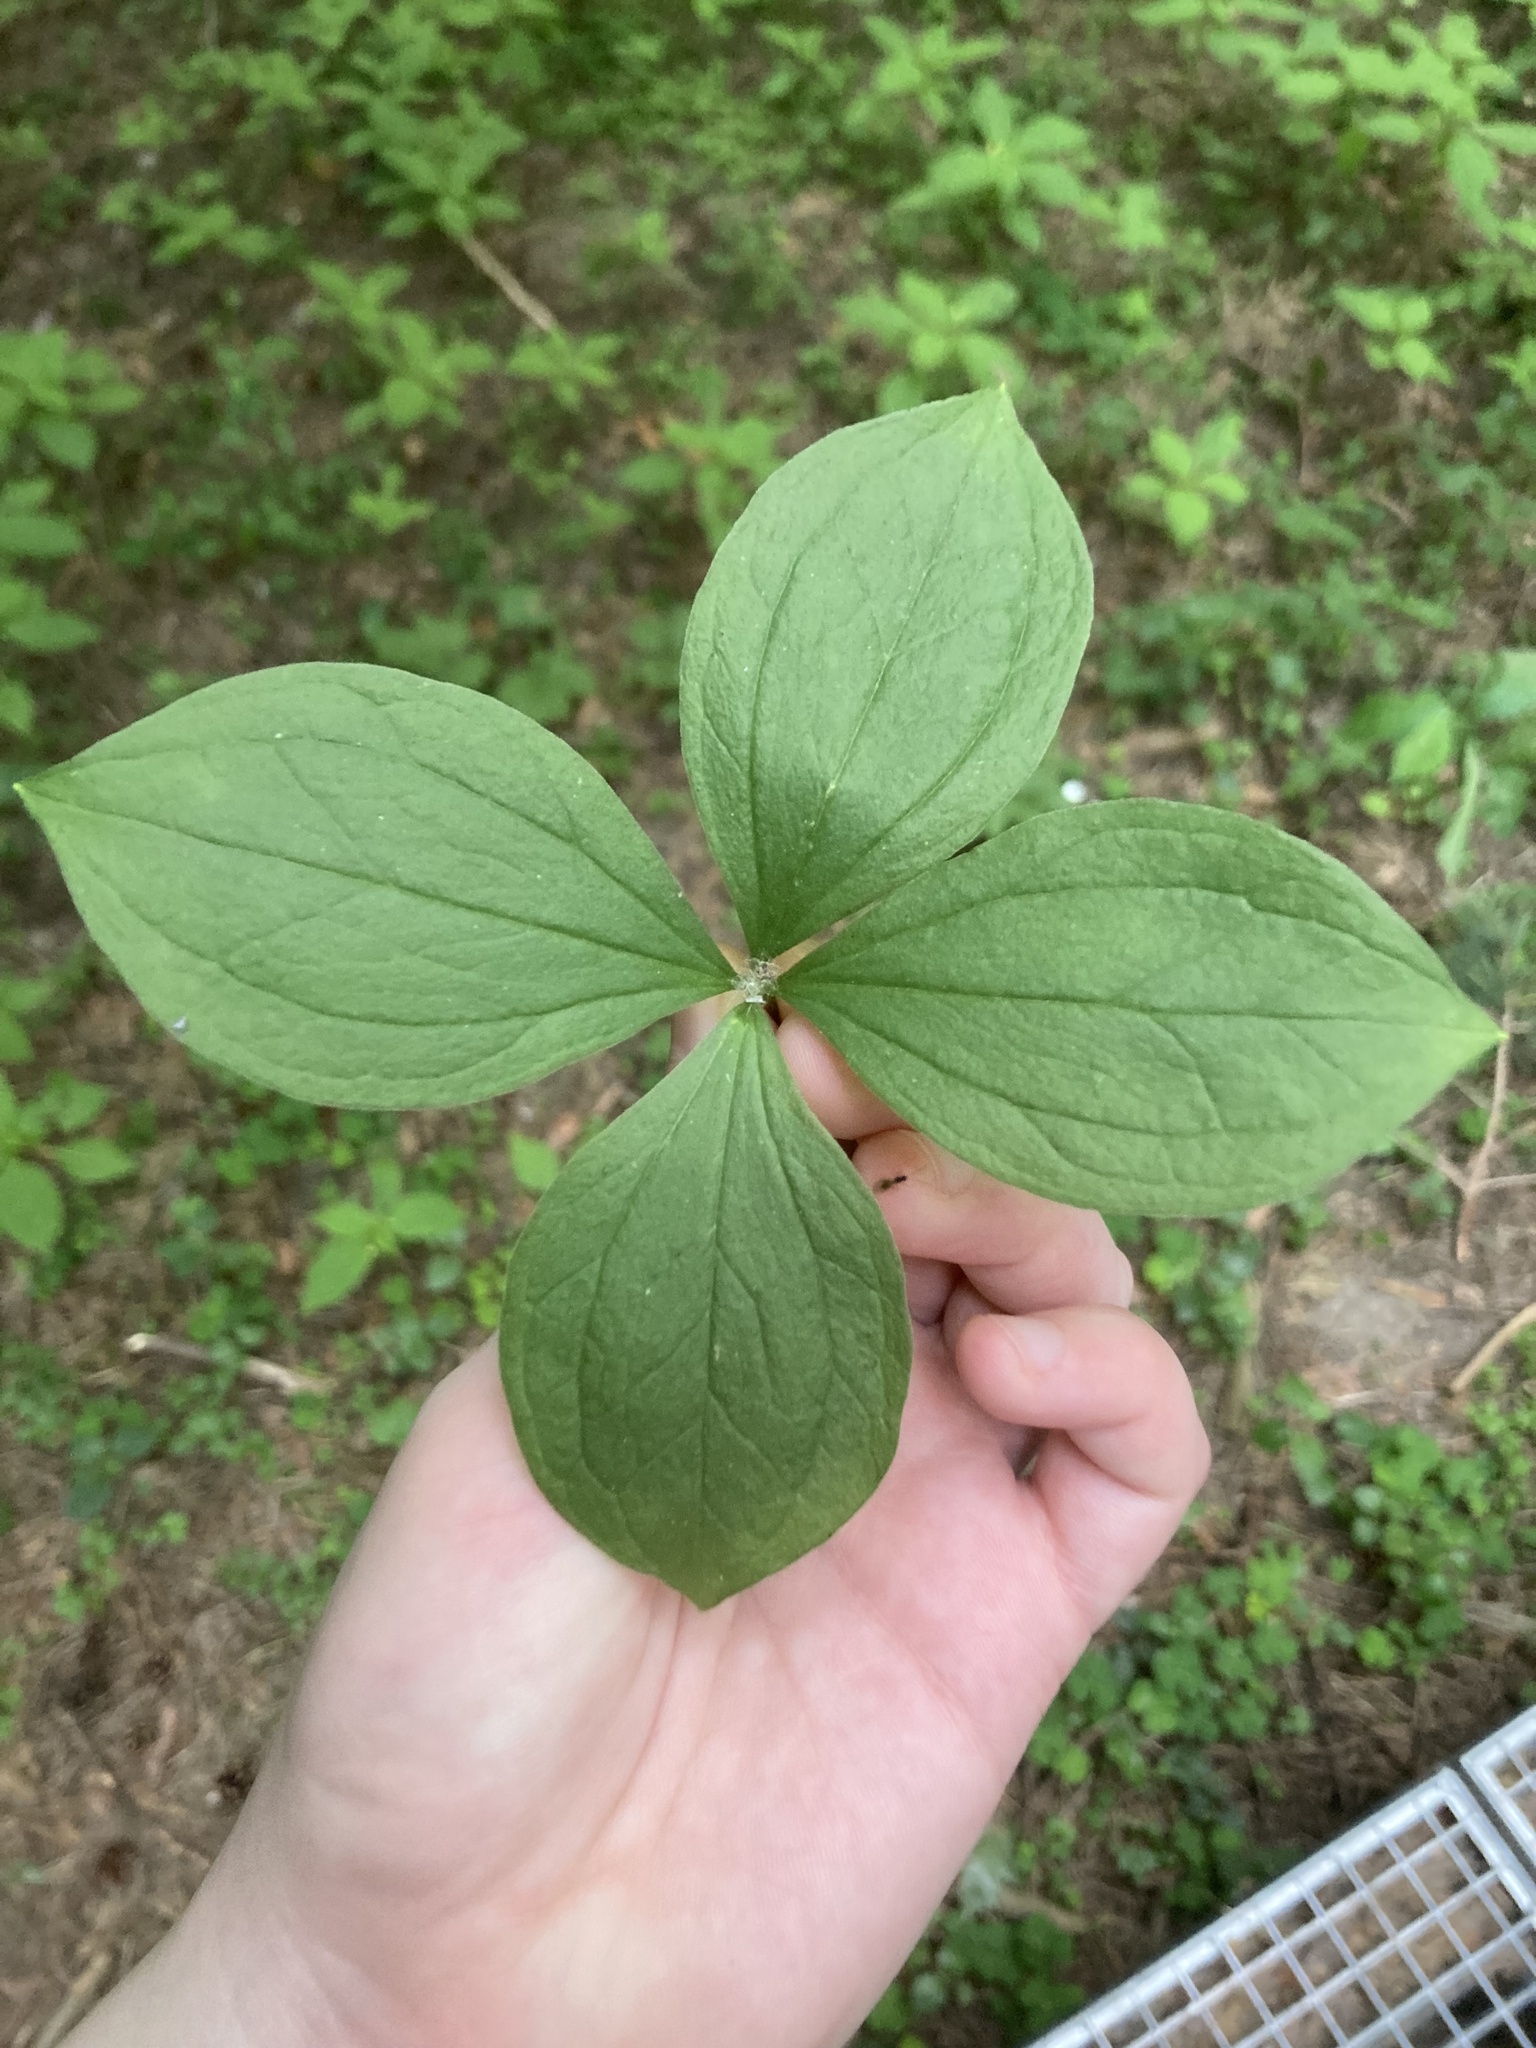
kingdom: Plantae
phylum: Tracheophyta
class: Liliopsida
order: Liliales
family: Melanthiaceae
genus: Paris
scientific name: Paris quadrifolia
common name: Herb-paris
